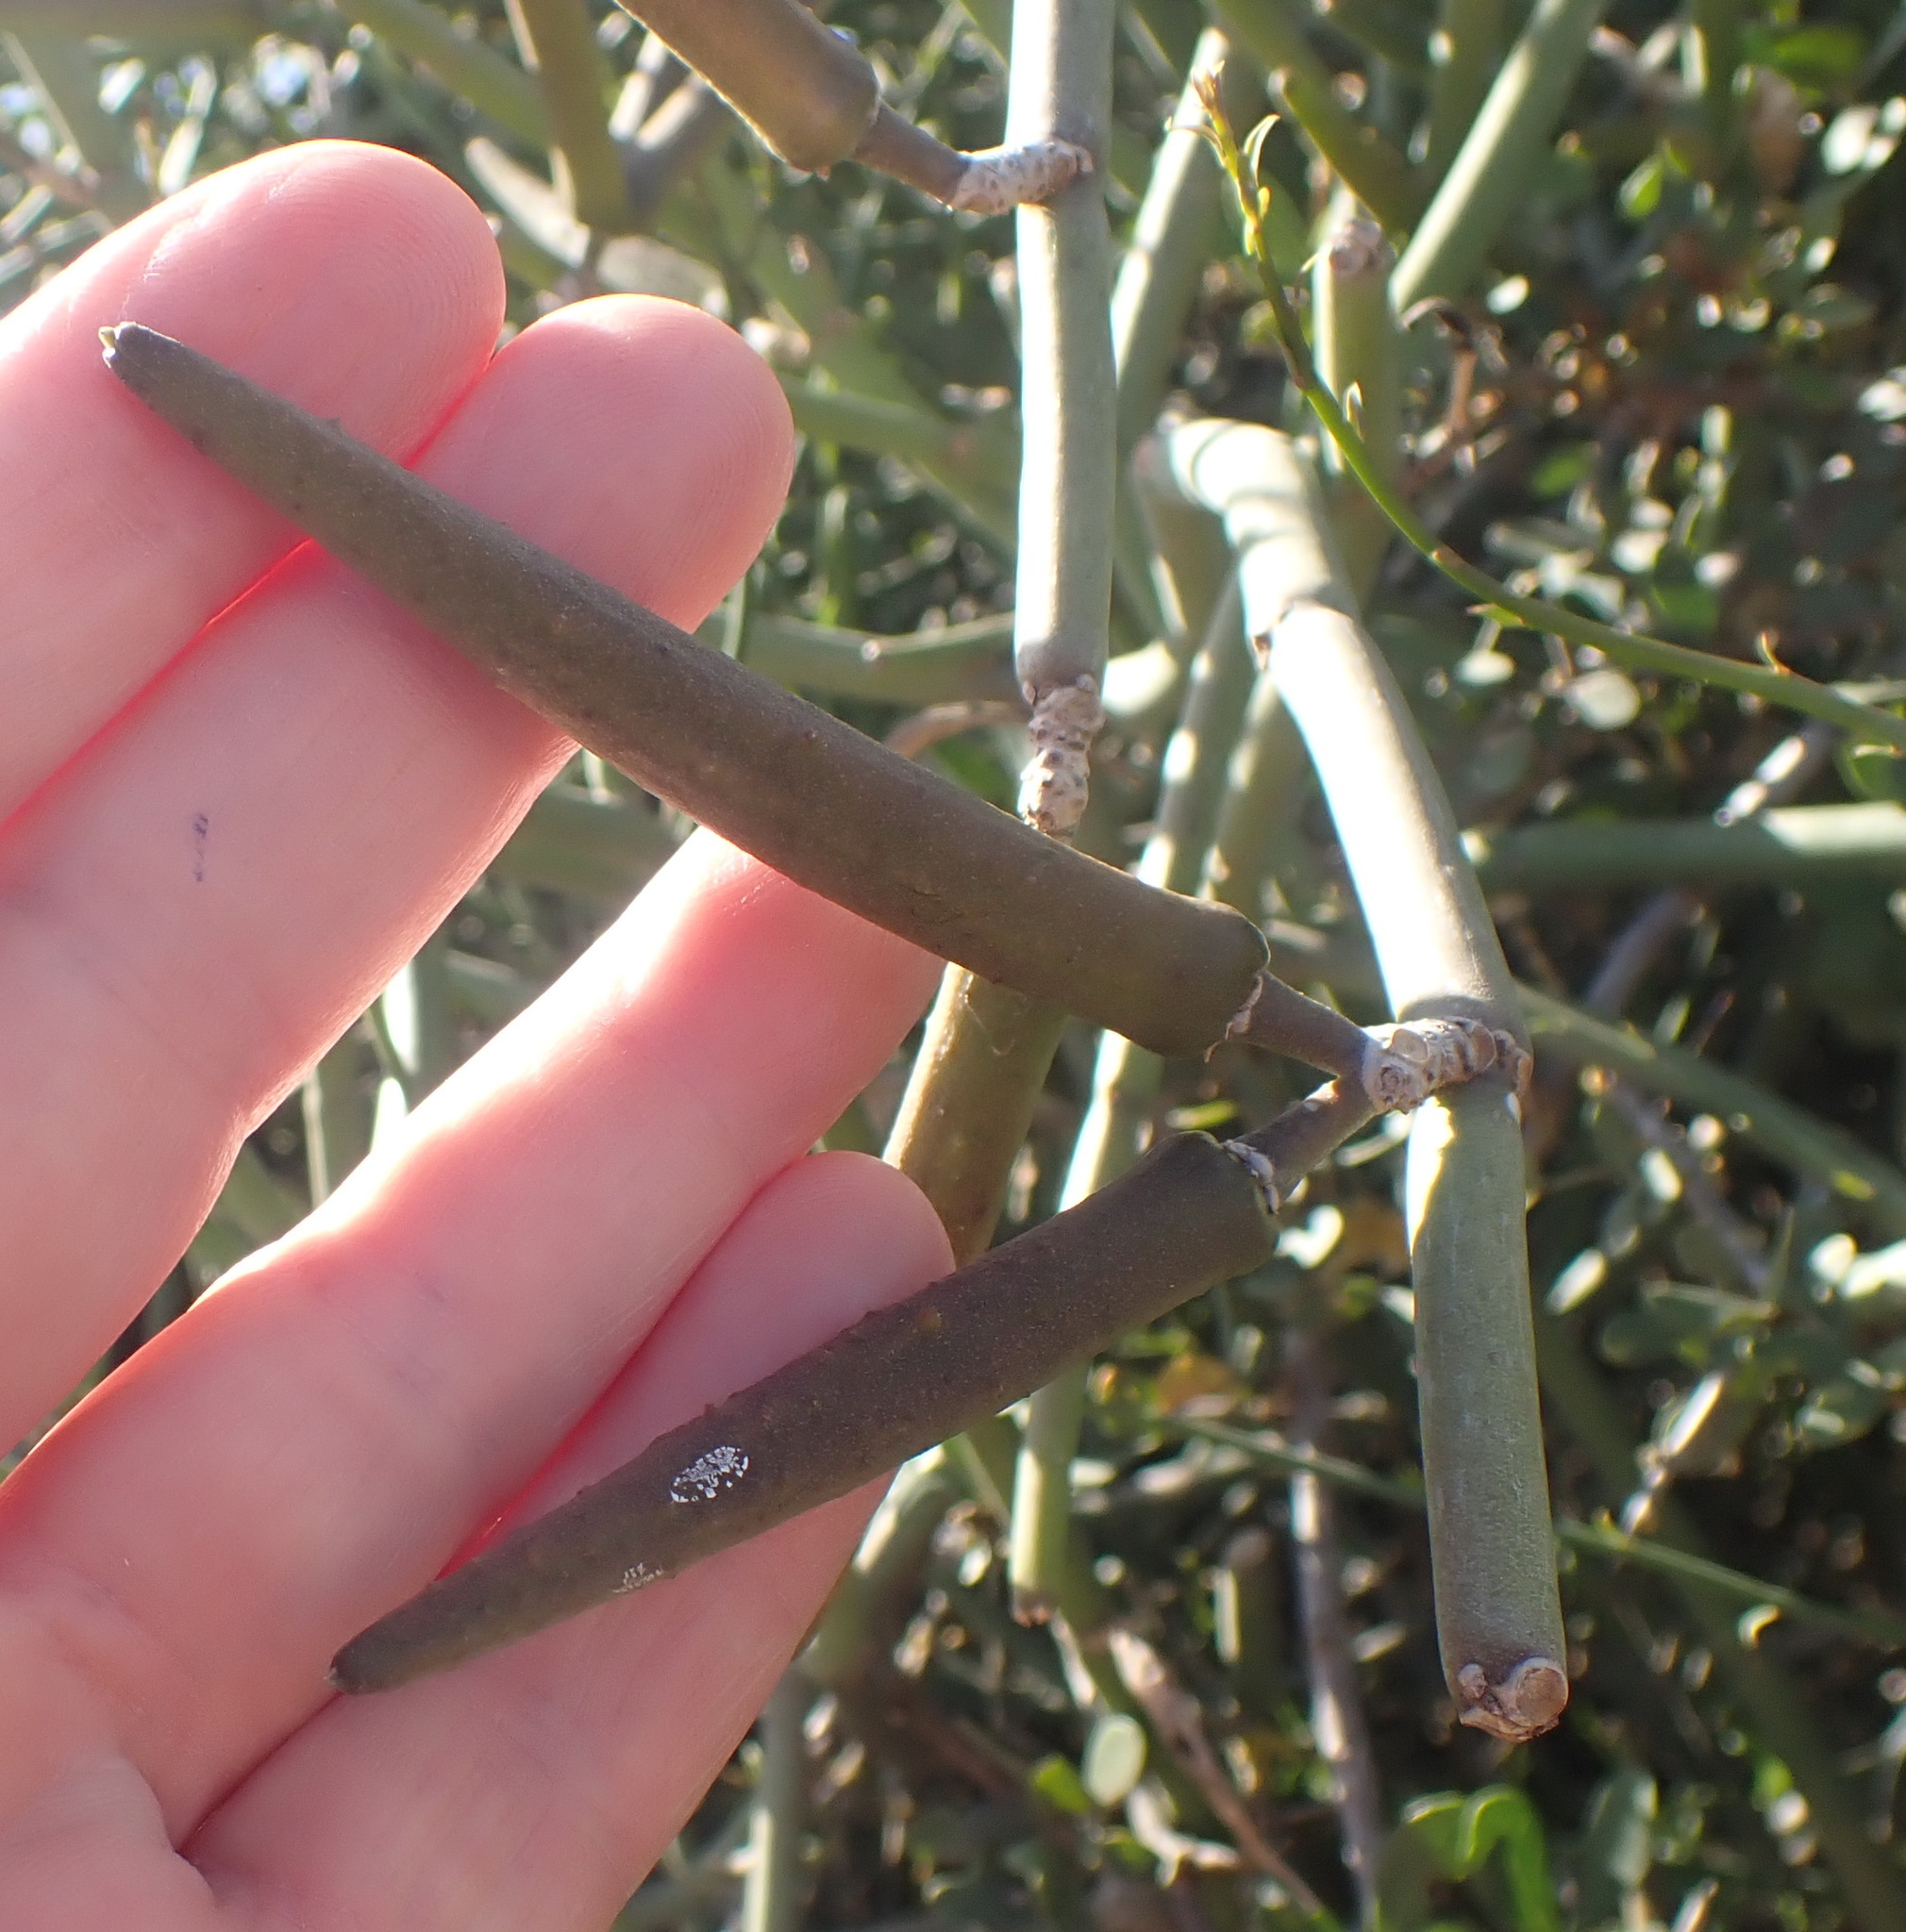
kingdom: Plantae
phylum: Tracheophyta
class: Magnoliopsida
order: Gentianales
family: Apocynaceae
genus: Cynanchum
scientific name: Cynanchum viminale
